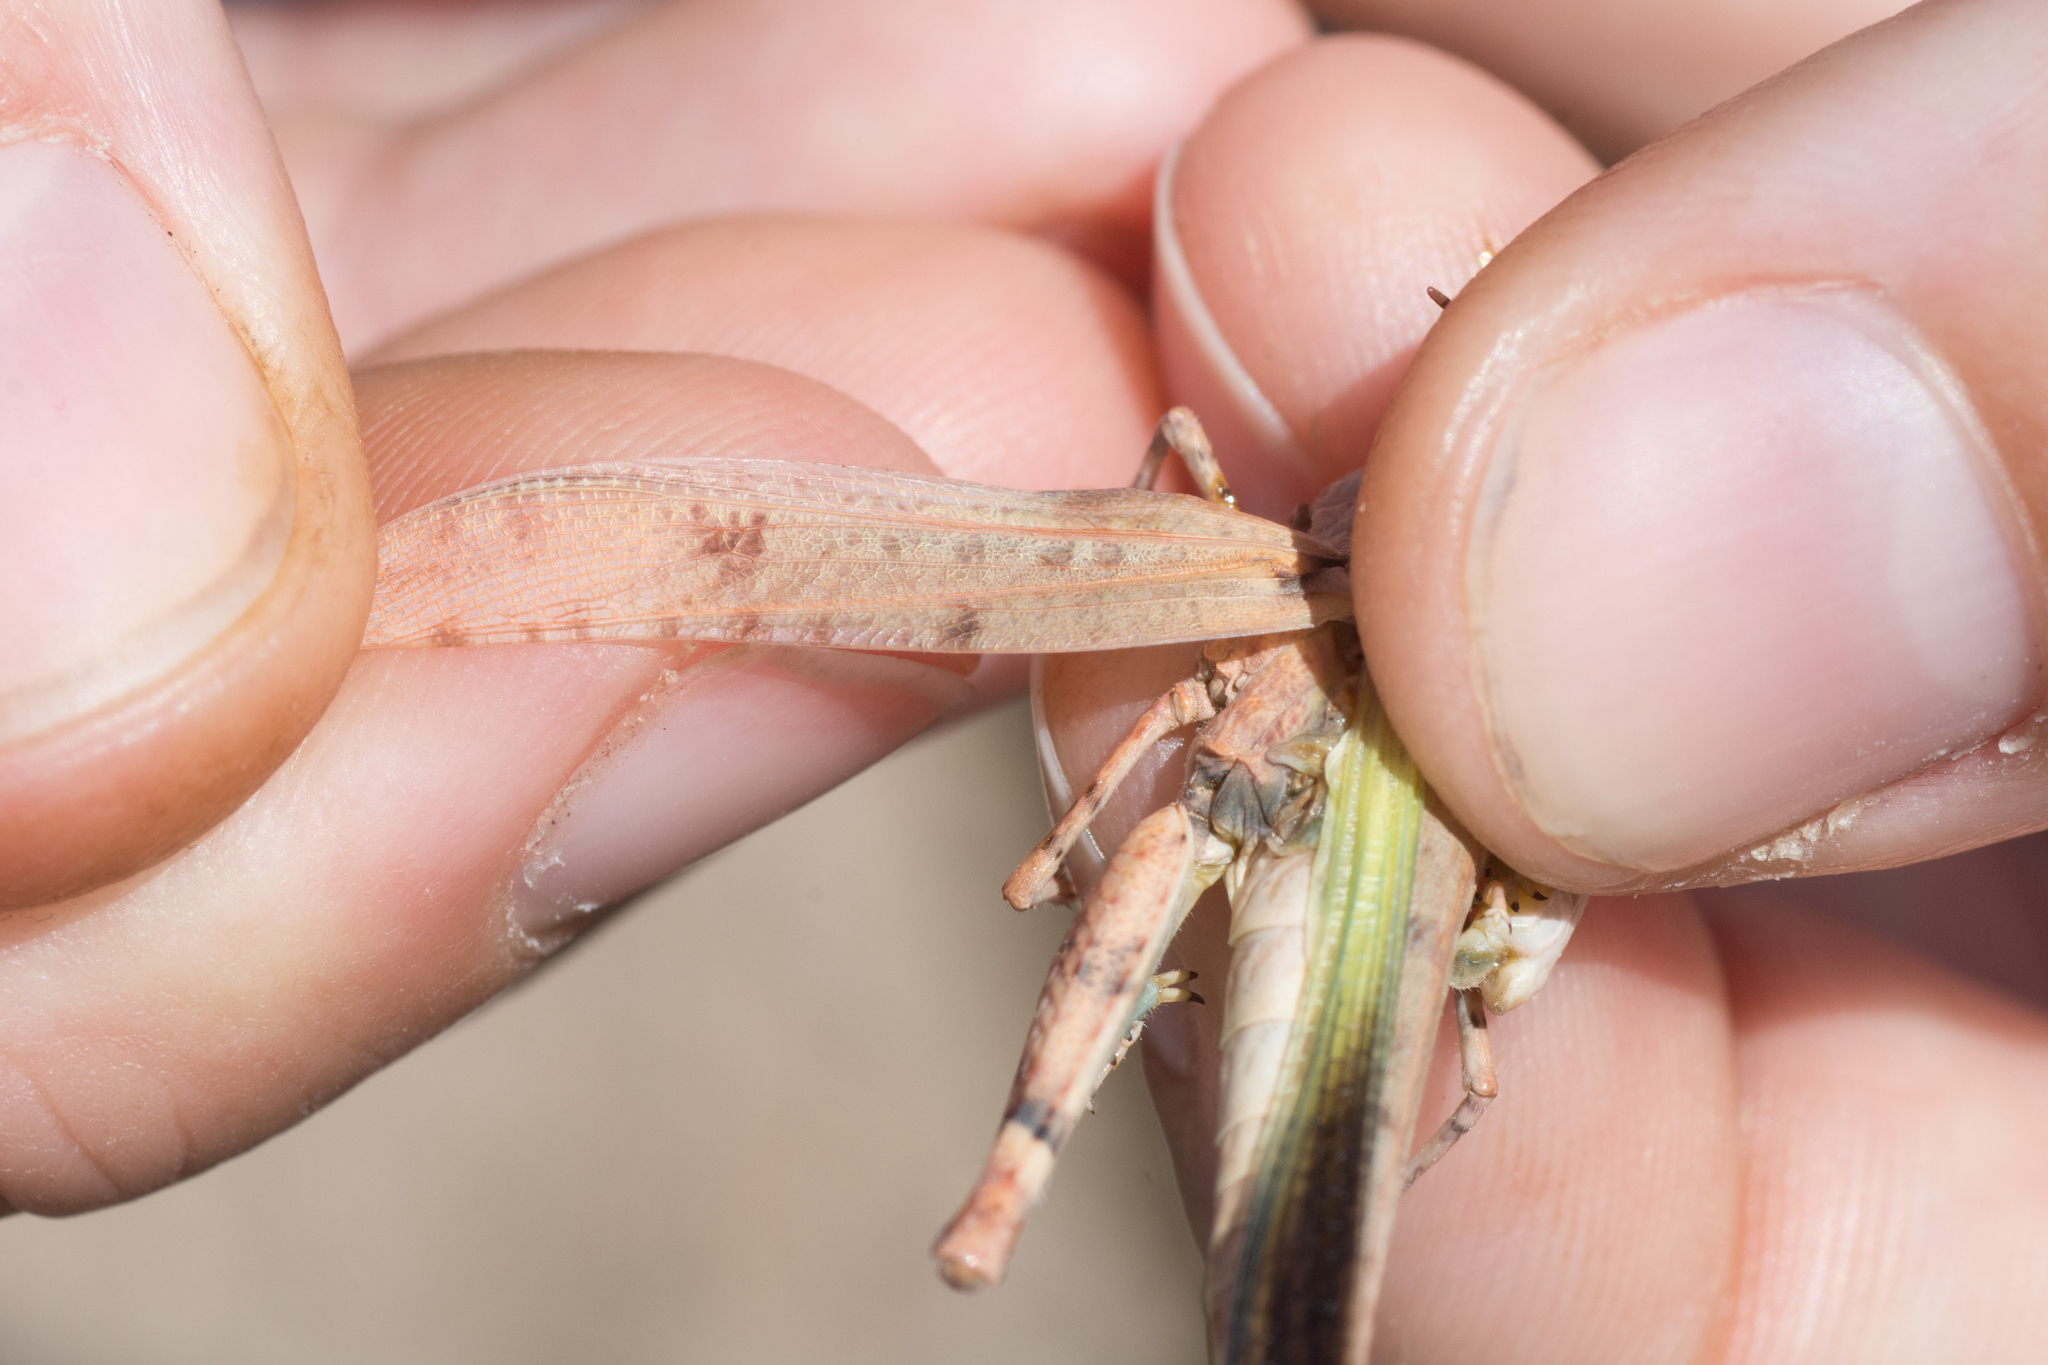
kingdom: Animalia
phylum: Arthropoda
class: Insecta
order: Orthoptera
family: Acrididae
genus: Cibolacris
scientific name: Cibolacris parviceps
